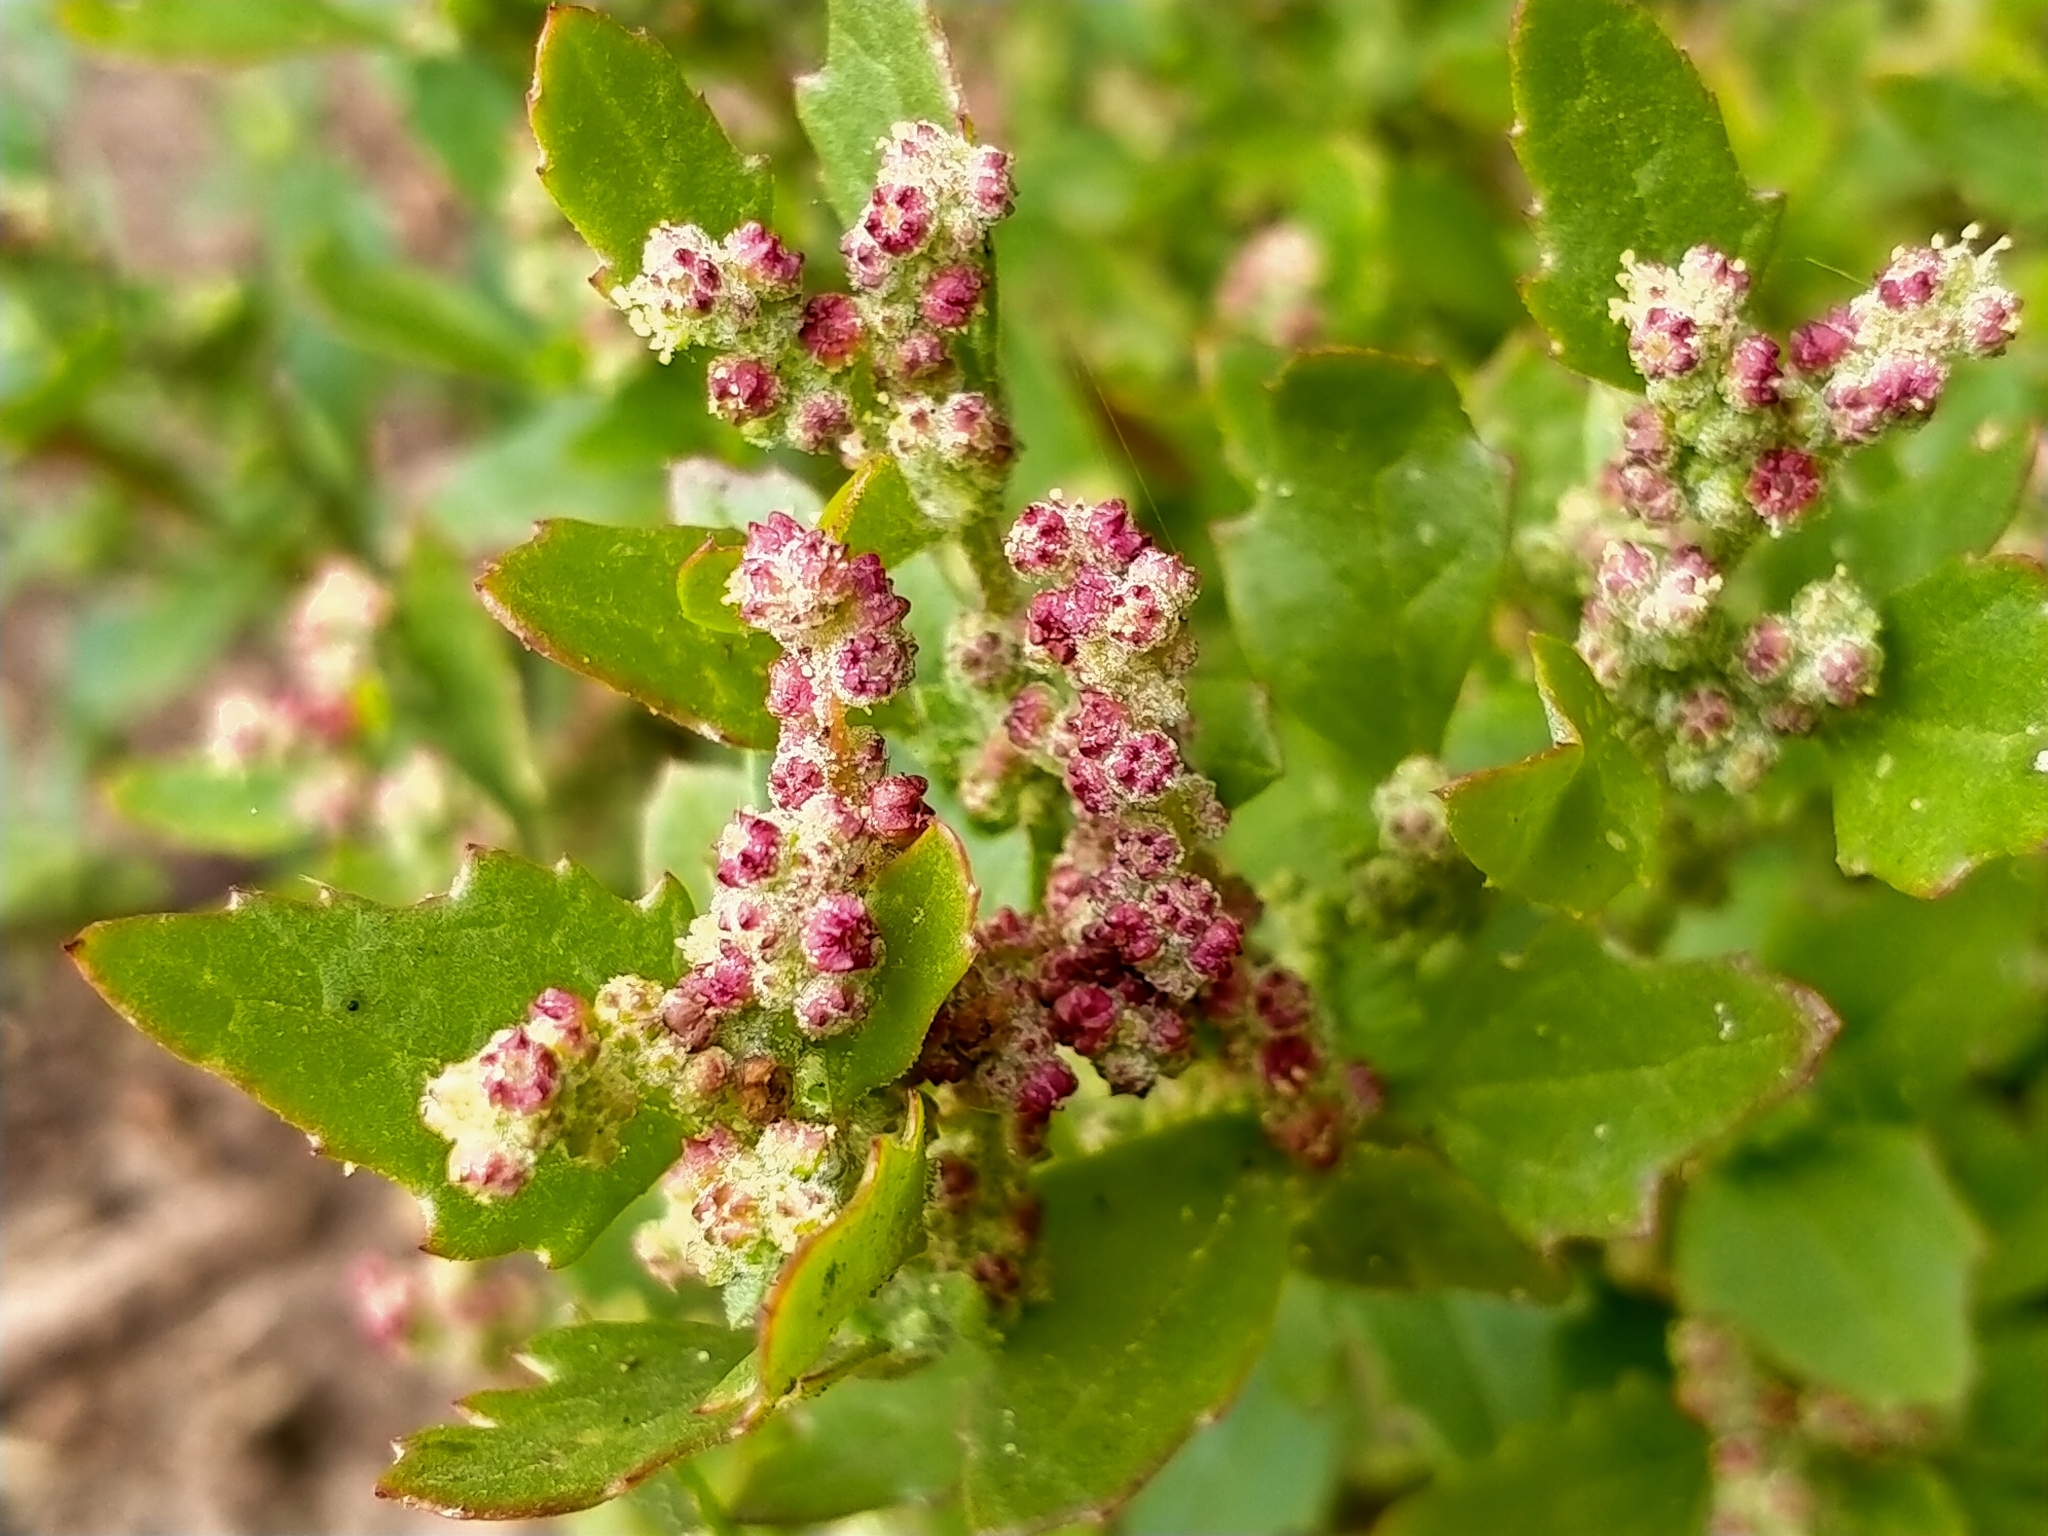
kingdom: Plantae
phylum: Tracheophyta
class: Magnoliopsida
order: Caryophyllales
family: Amaranthaceae
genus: Chenopodiastrum
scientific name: Chenopodiastrum murale
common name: Sowbane
